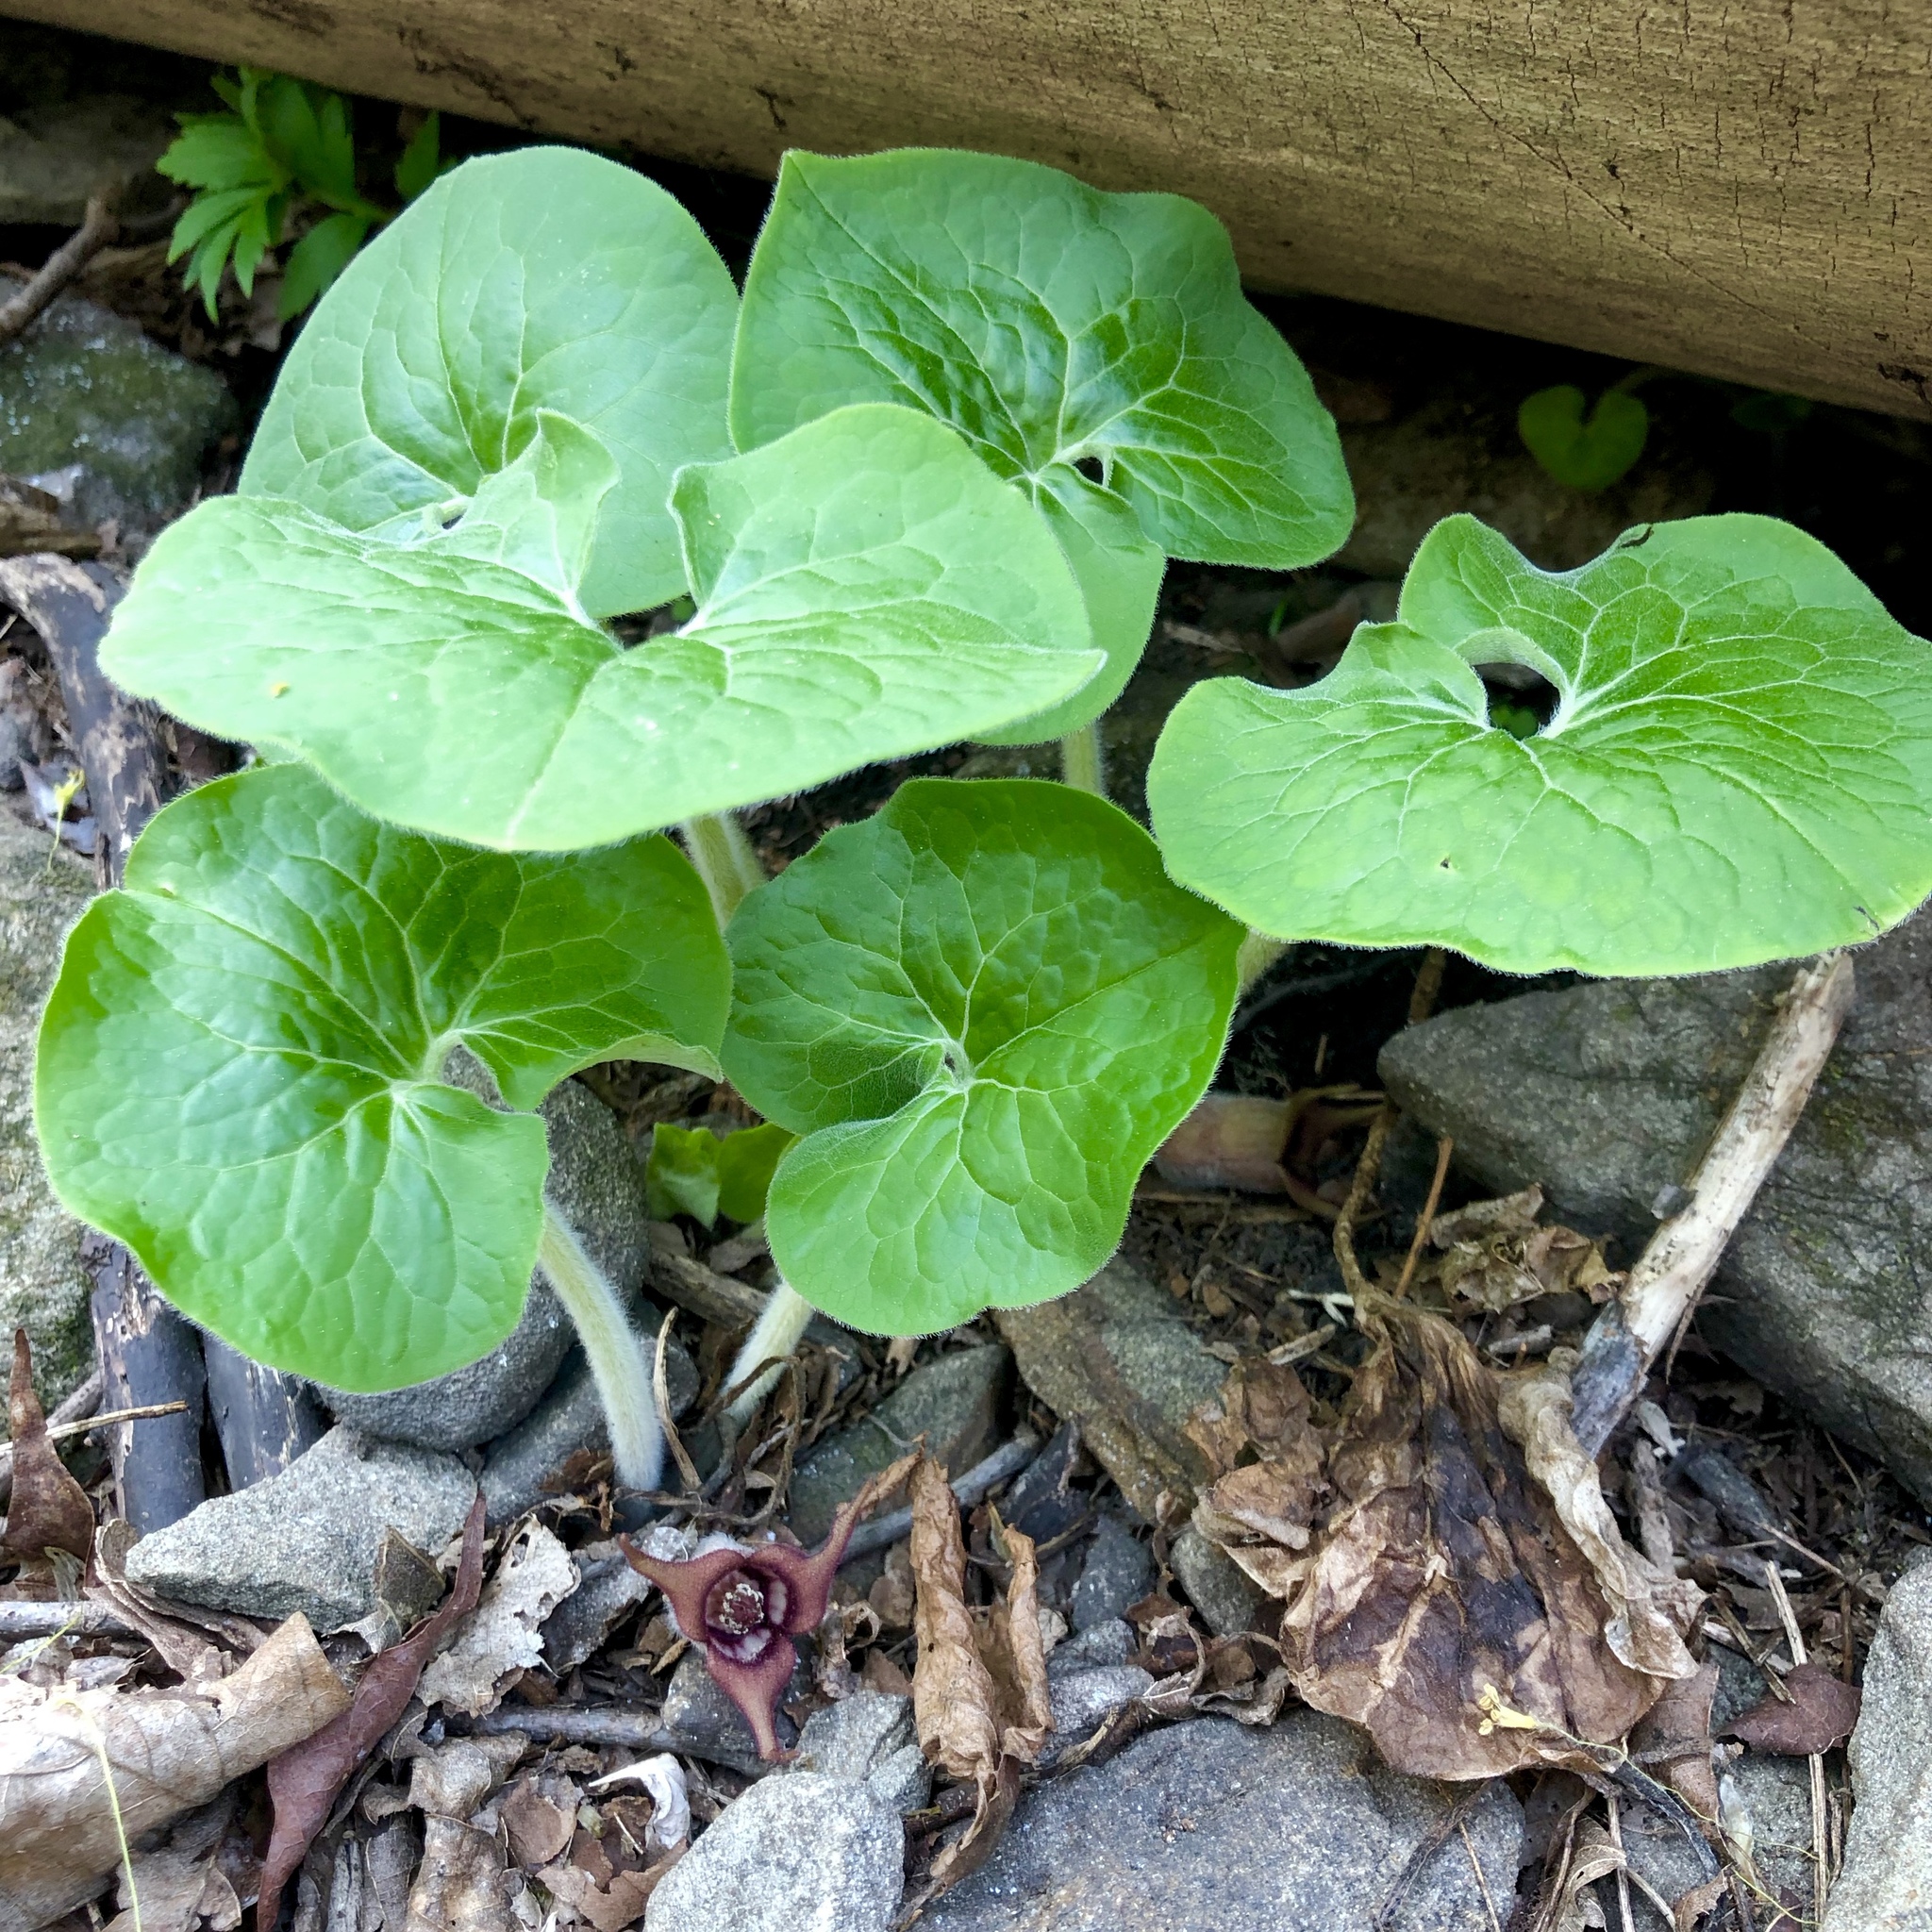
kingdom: Plantae
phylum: Tracheophyta
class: Magnoliopsida
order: Piperales
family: Aristolochiaceae
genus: Asarum
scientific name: Asarum canadense
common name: Wild ginger
